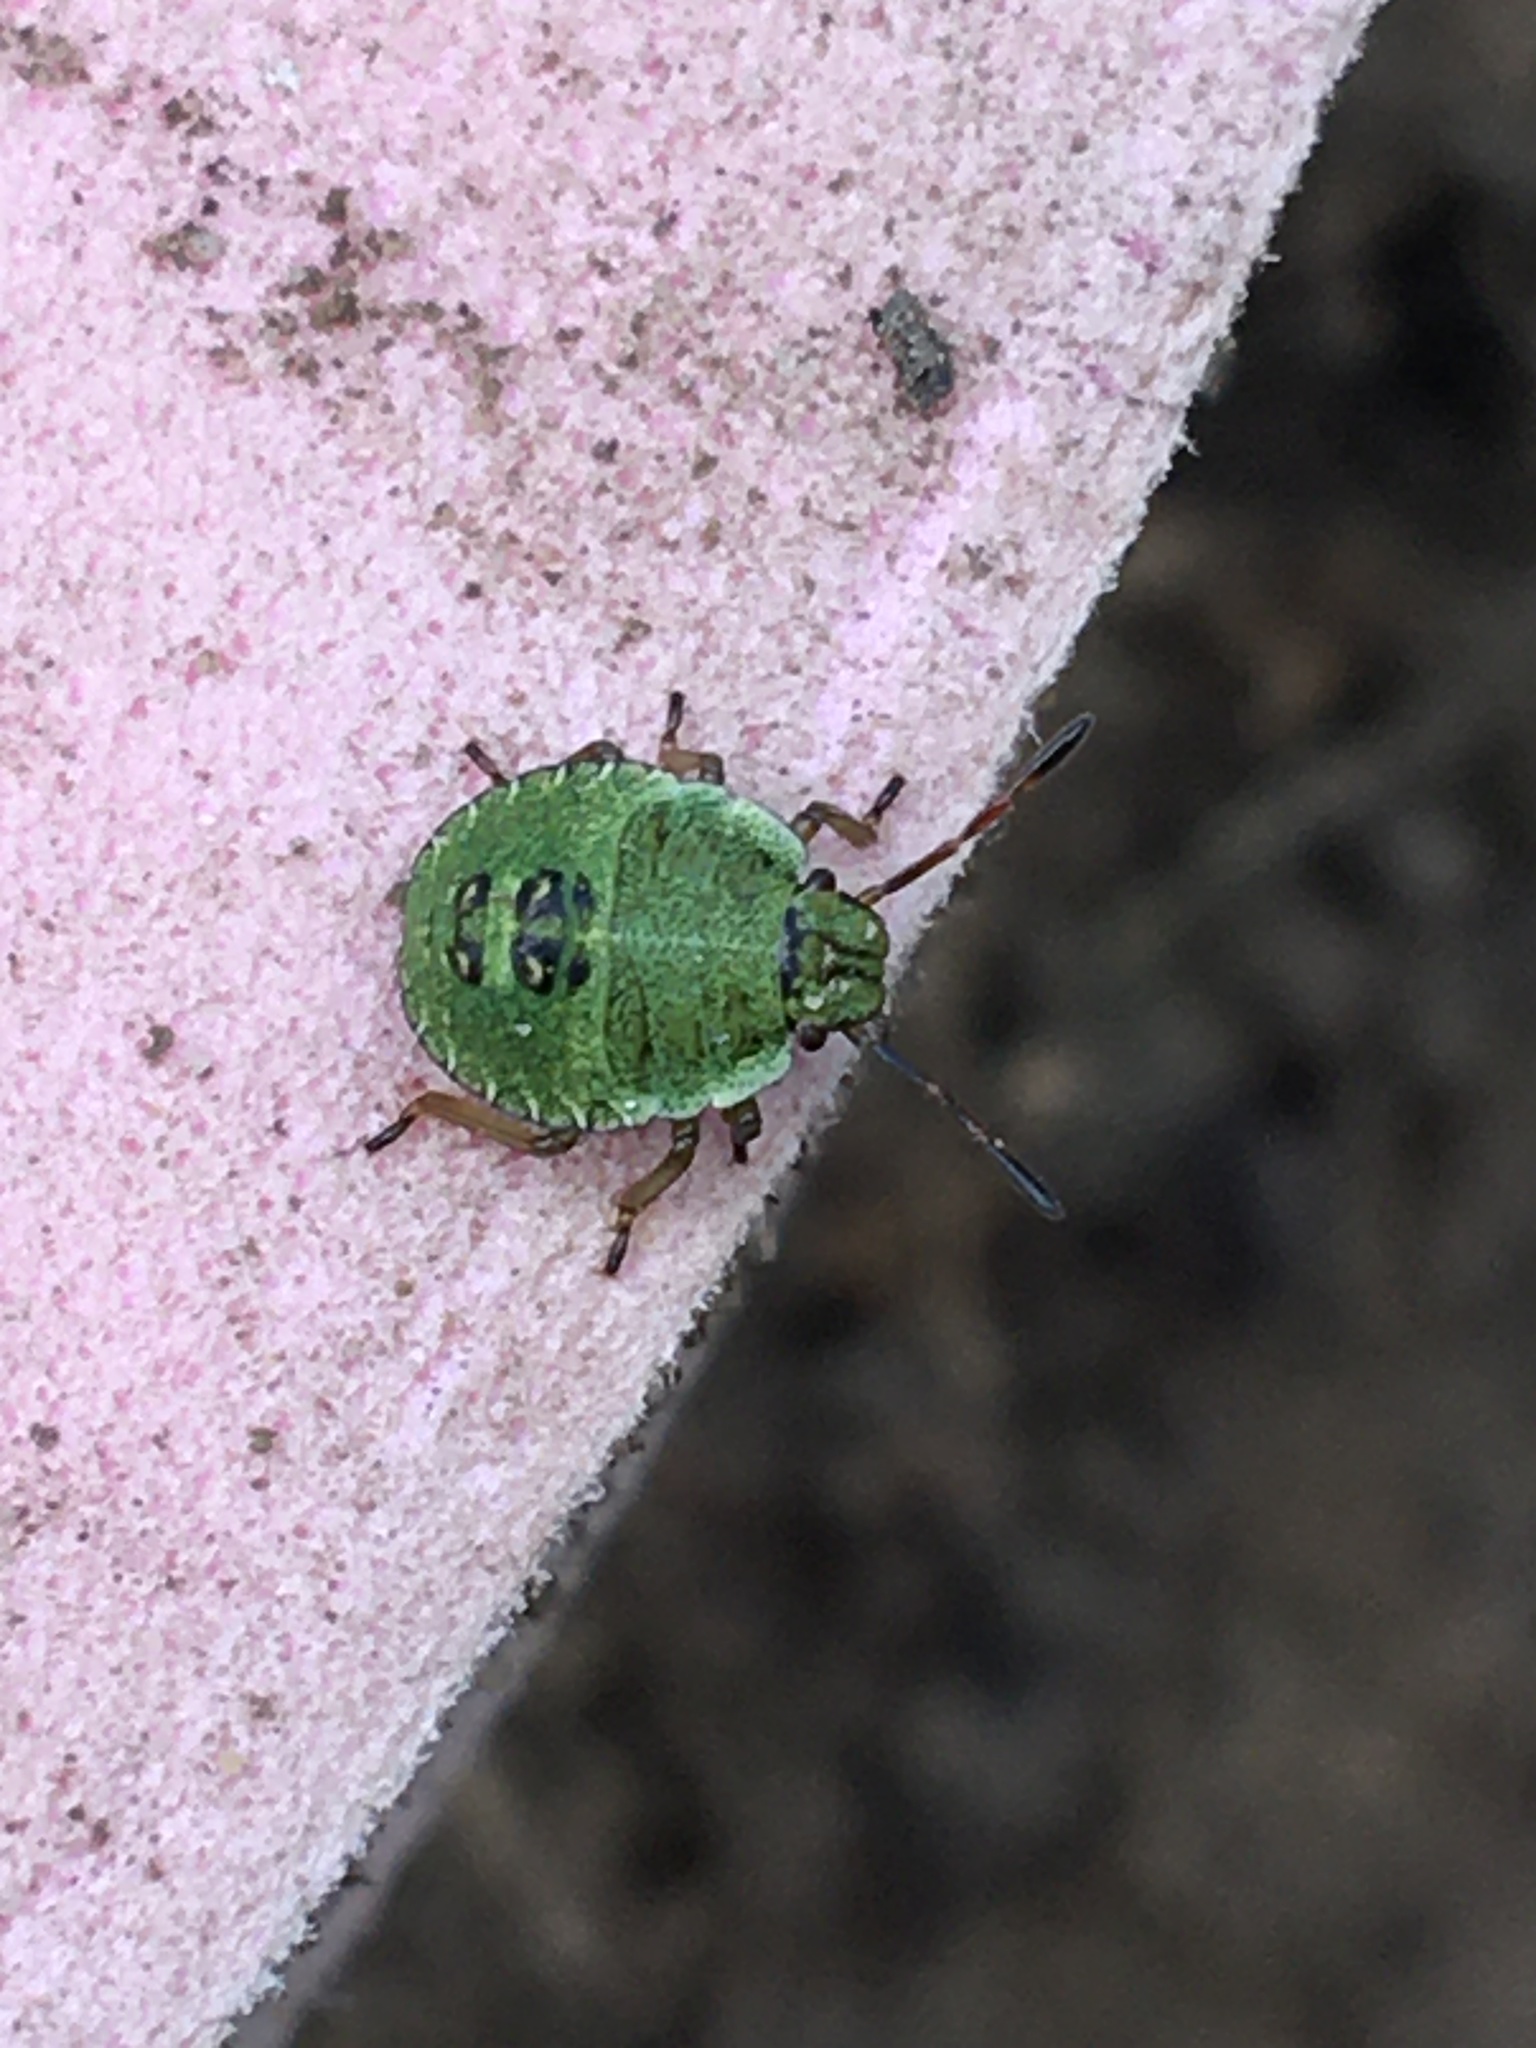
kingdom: Animalia
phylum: Arthropoda
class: Insecta
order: Hemiptera
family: Pentatomidae
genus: Palomena
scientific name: Palomena prasina
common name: Green shieldbug
